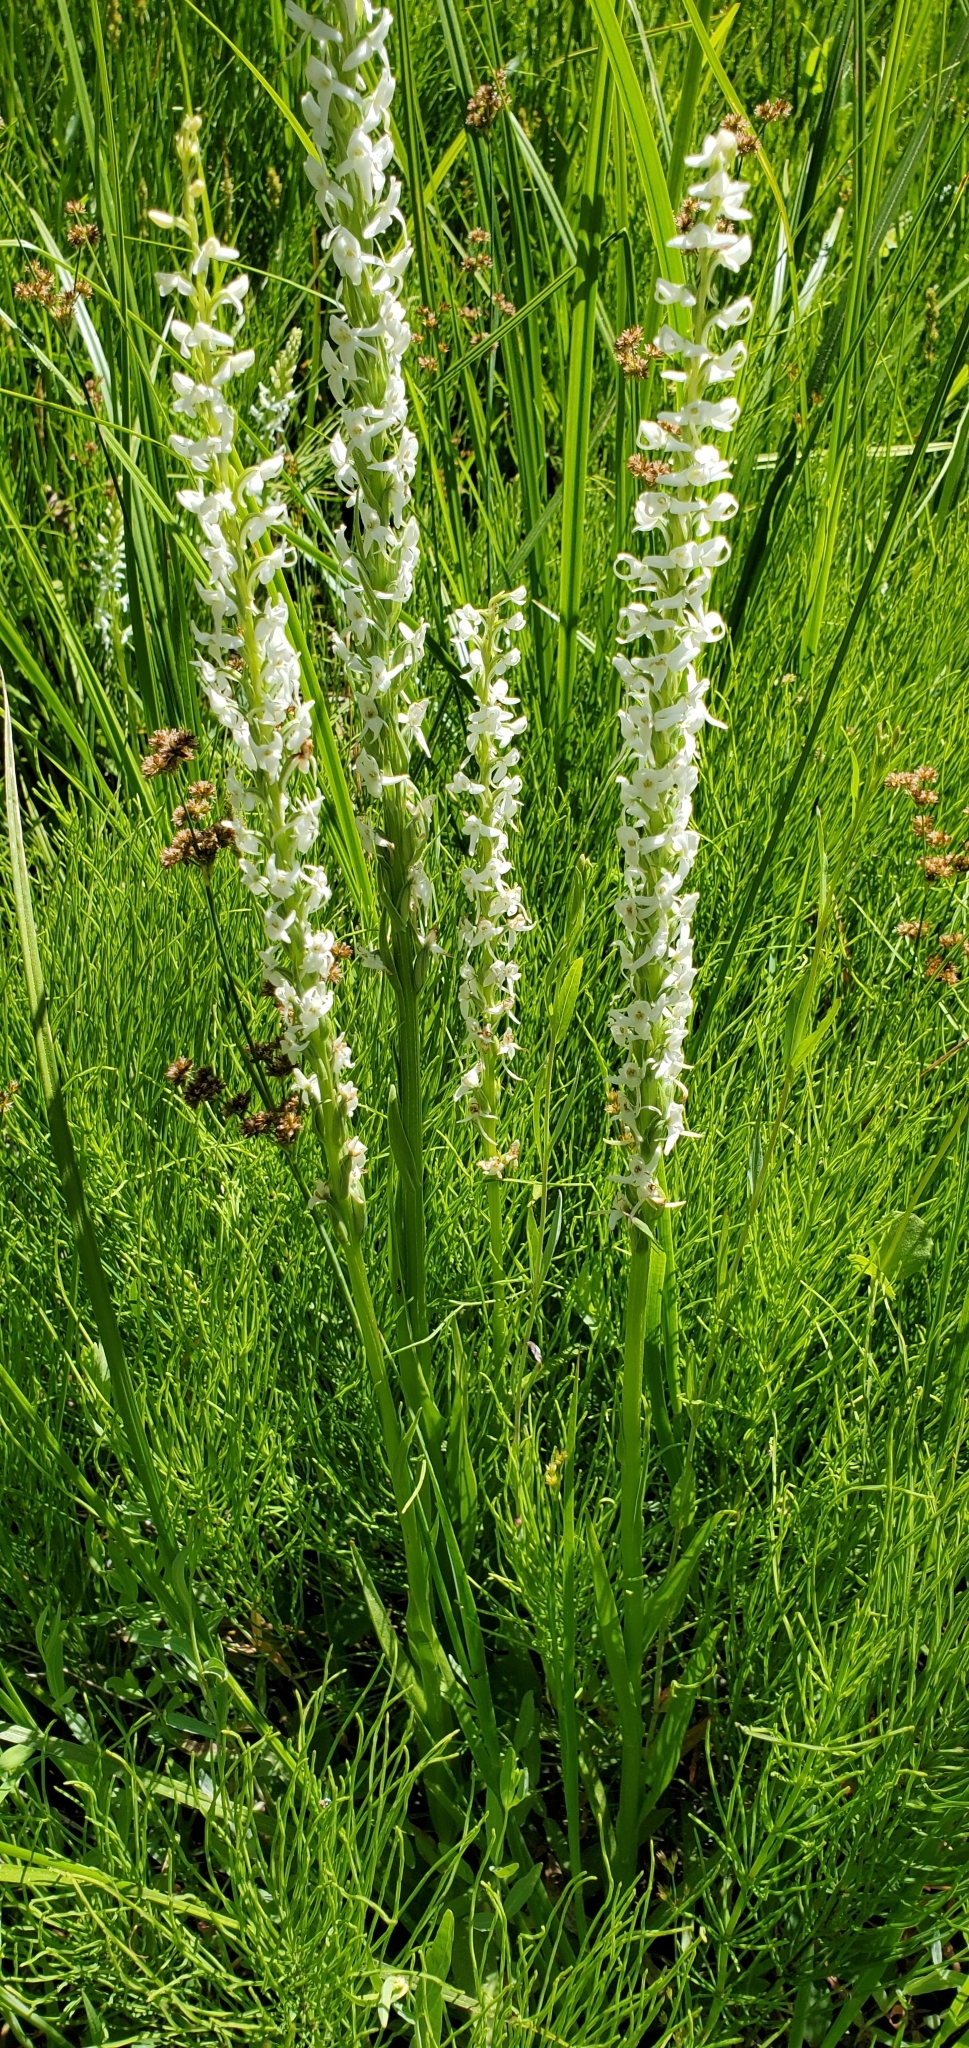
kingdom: Plantae
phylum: Tracheophyta
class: Liliopsida
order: Asparagales
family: Orchidaceae
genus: Platanthera
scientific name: Platanthera dilatata
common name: Bog candles
